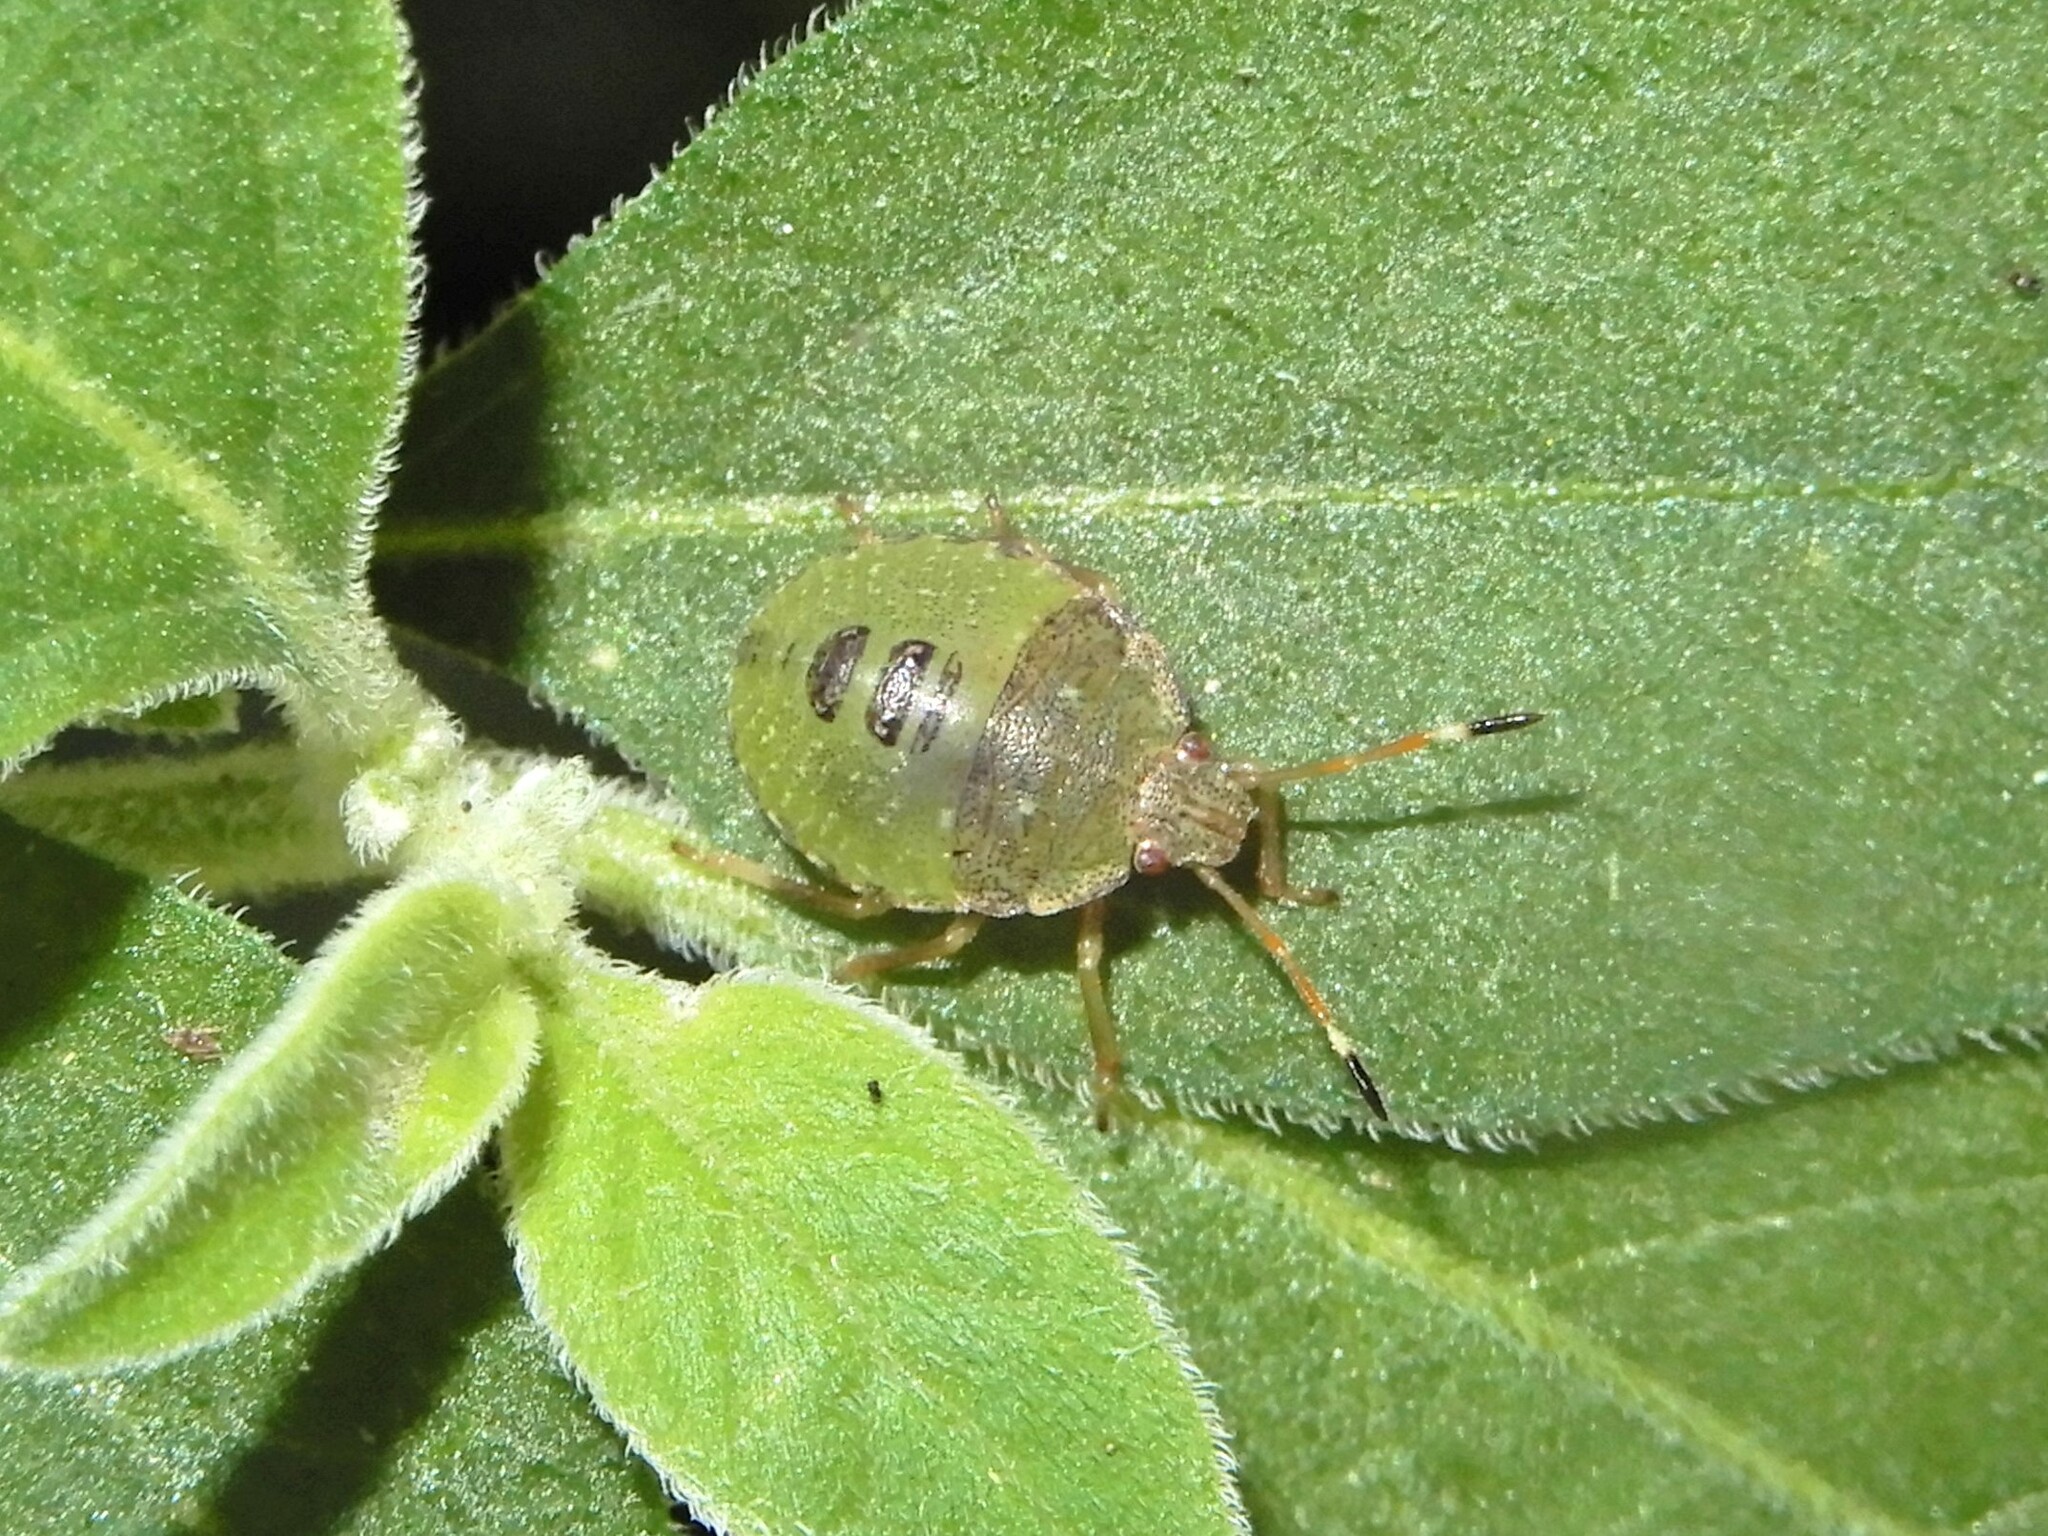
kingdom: Animalia
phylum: Arthropoda
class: Insecta
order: Hemiptera
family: Pentatomidae
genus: Cuspicona
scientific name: Cuspicona simplex
